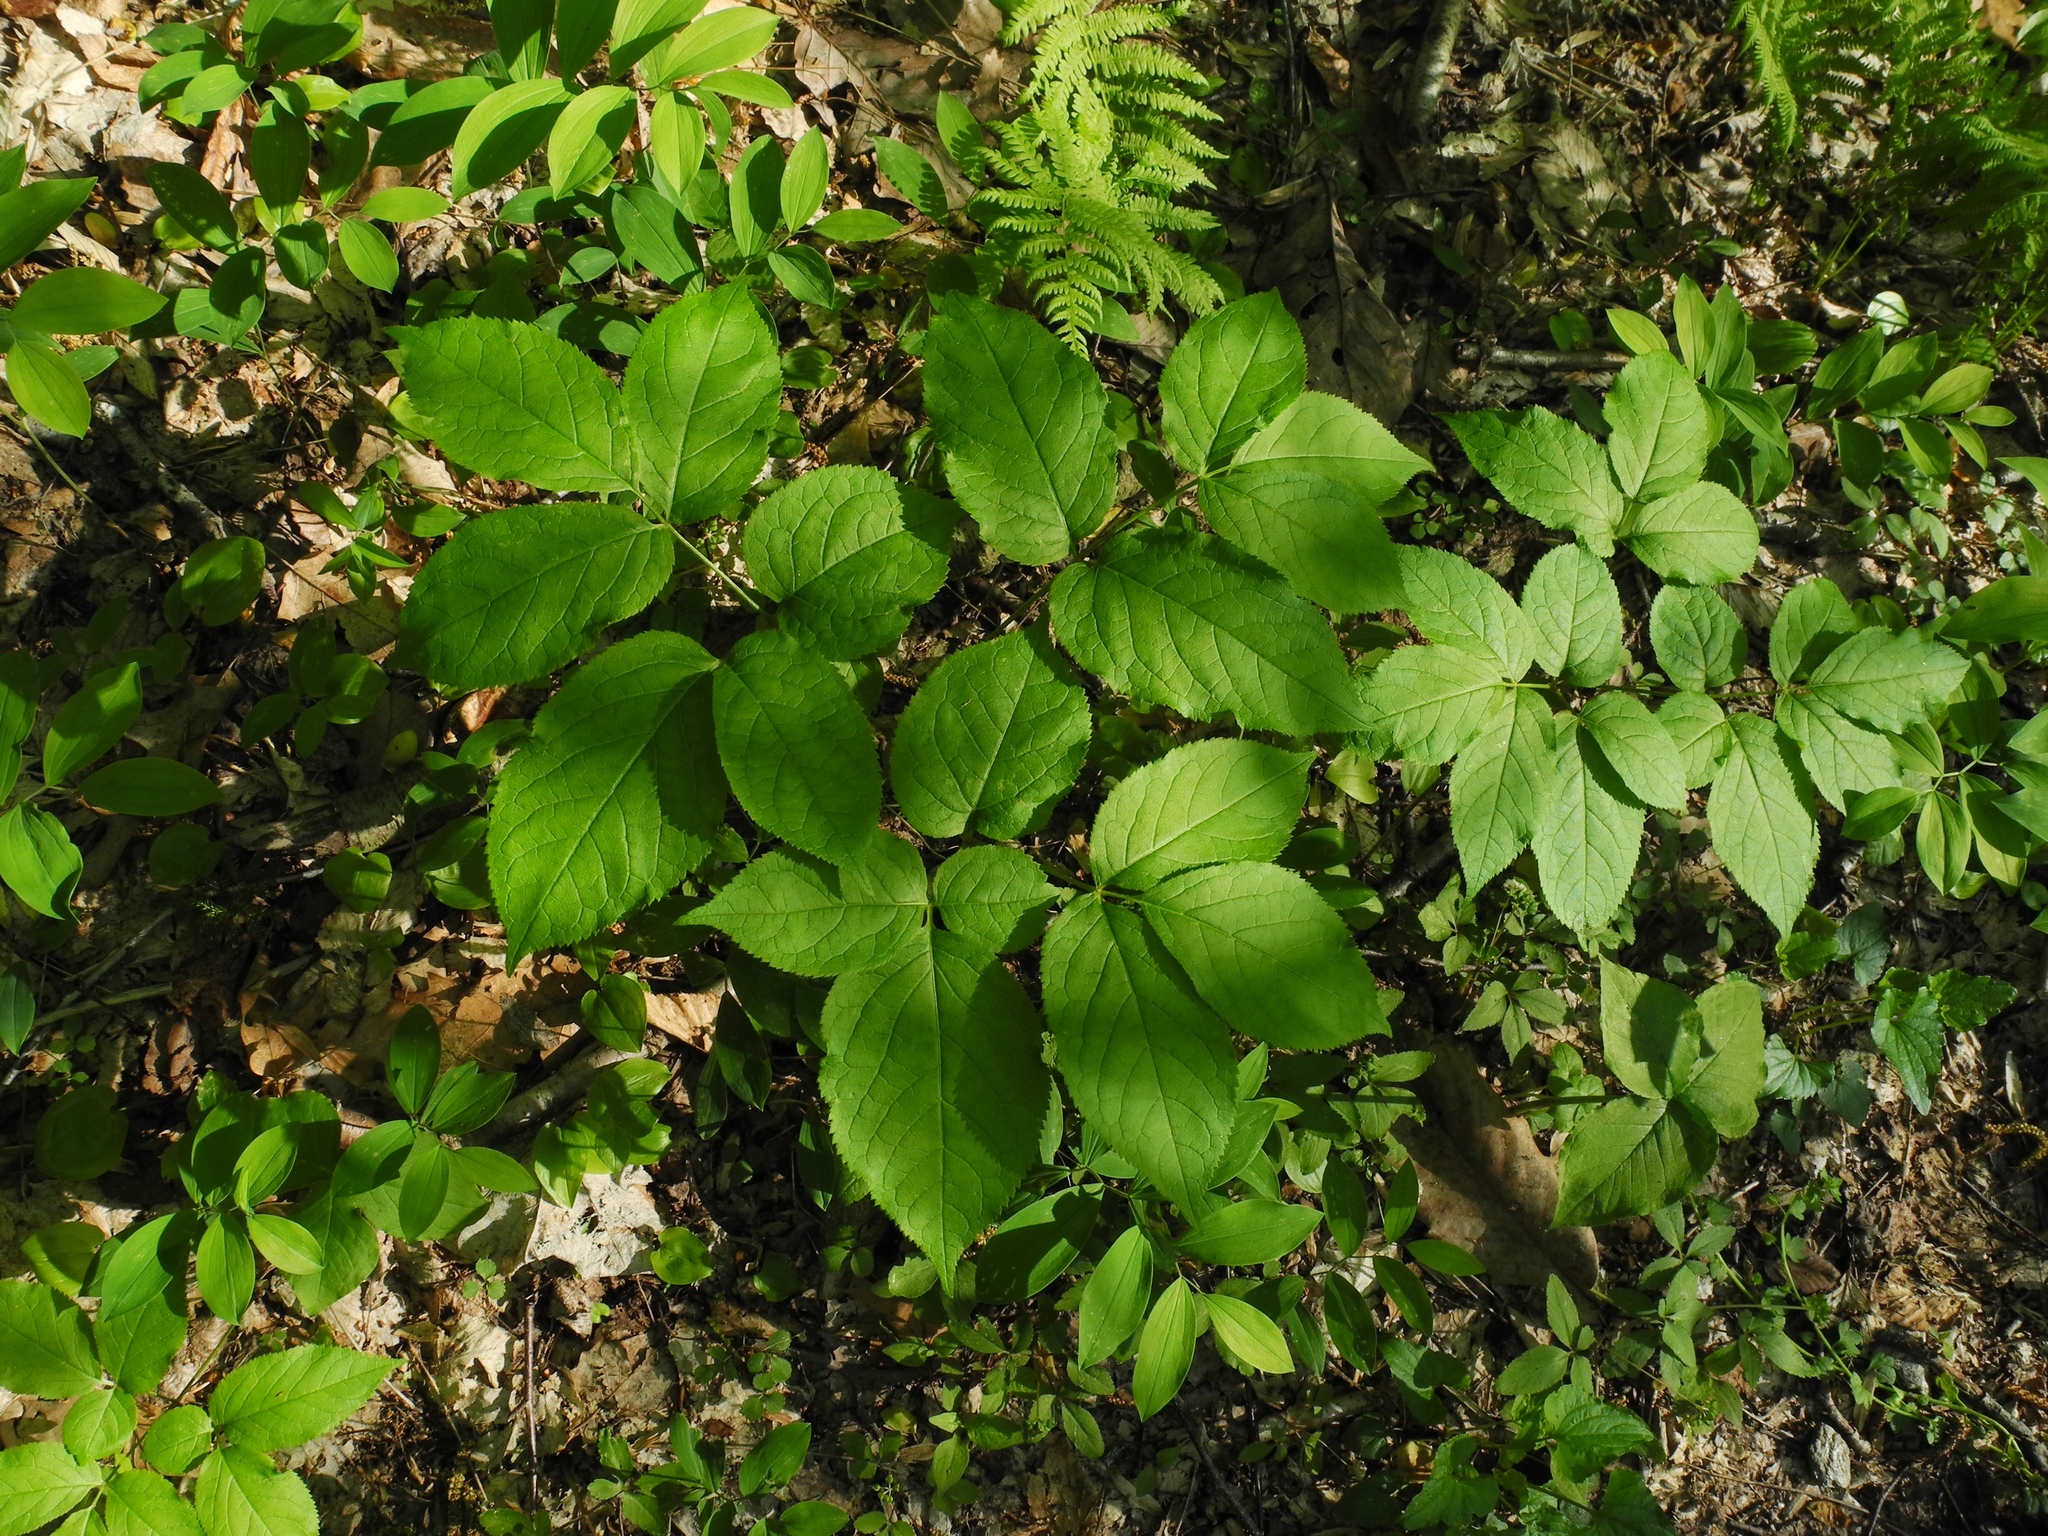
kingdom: Plantae
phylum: Tracheophyta
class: Magnoliopsida
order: Apiales
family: Araliaceae
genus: Aralia
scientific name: Aralia nudicaulis
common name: Wild sarsaparilla
